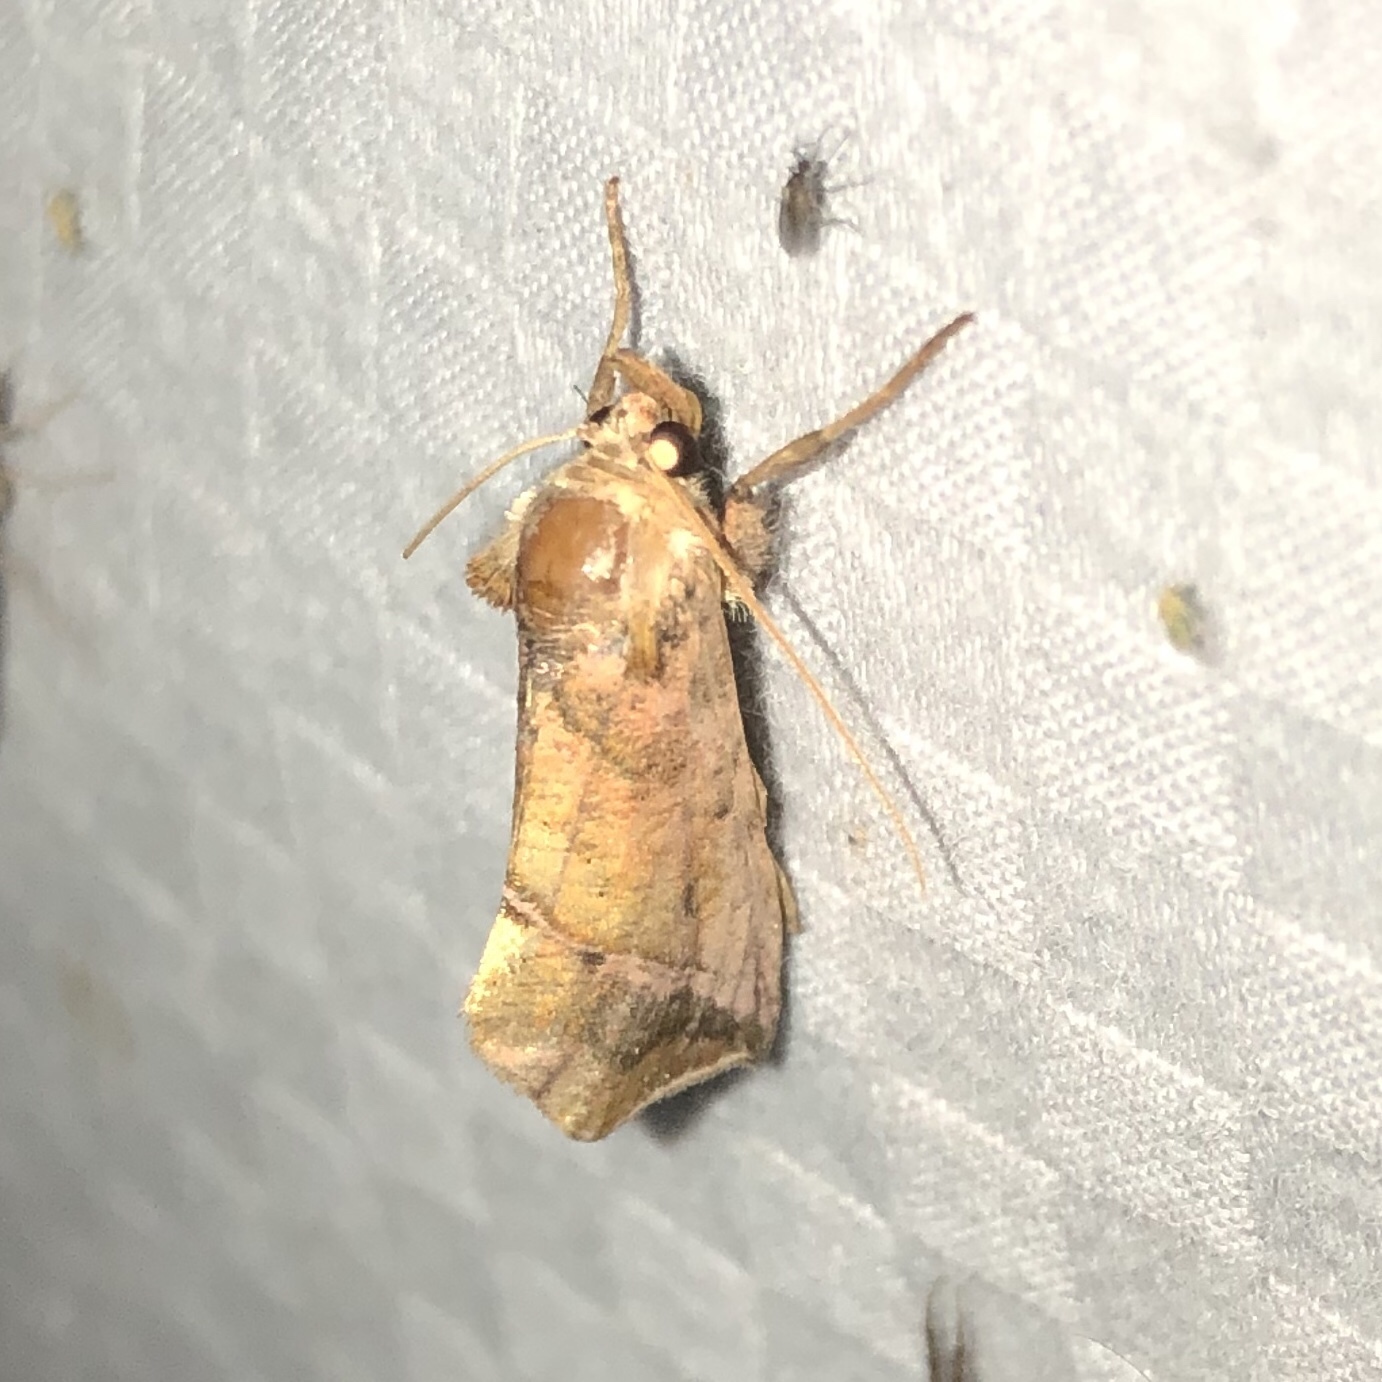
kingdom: Animalia
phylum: Arthropoda
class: Insecta
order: Lepidoptera
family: Noctuidae
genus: Pseudeva
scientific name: Pseudeva purpurigera
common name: Straight-lined looper moth
